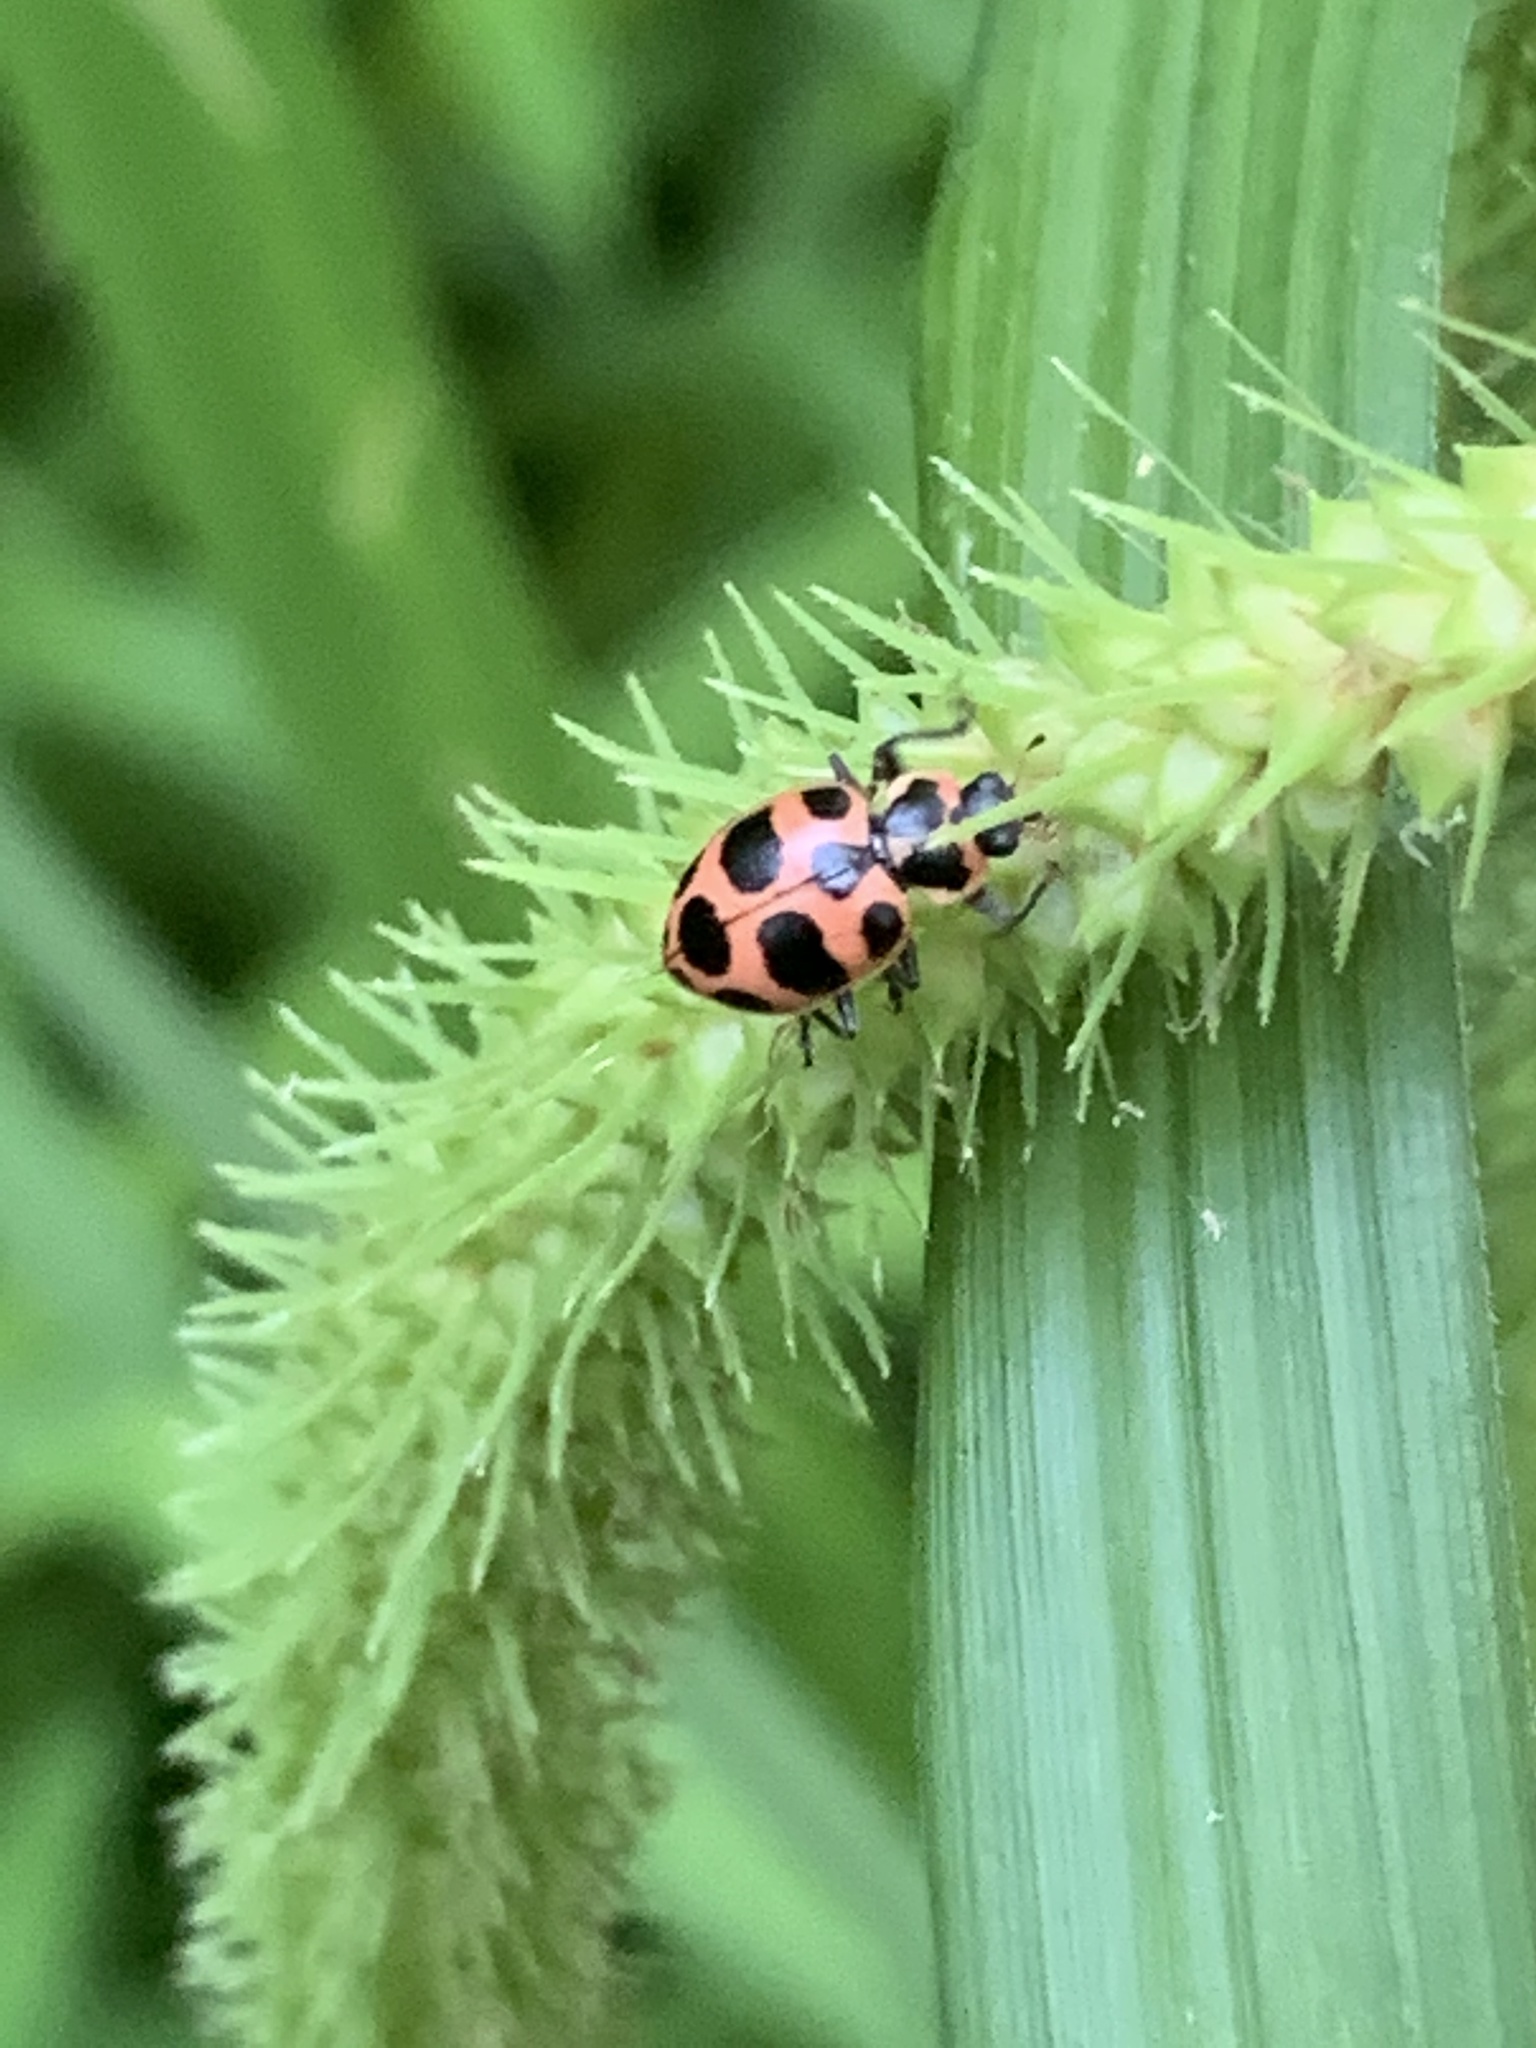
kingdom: Animalia
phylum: Arthropoda
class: Insecta
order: Coleoptera
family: Coccinellidae
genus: Coleomegilla
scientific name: Coleomegilla maculata
